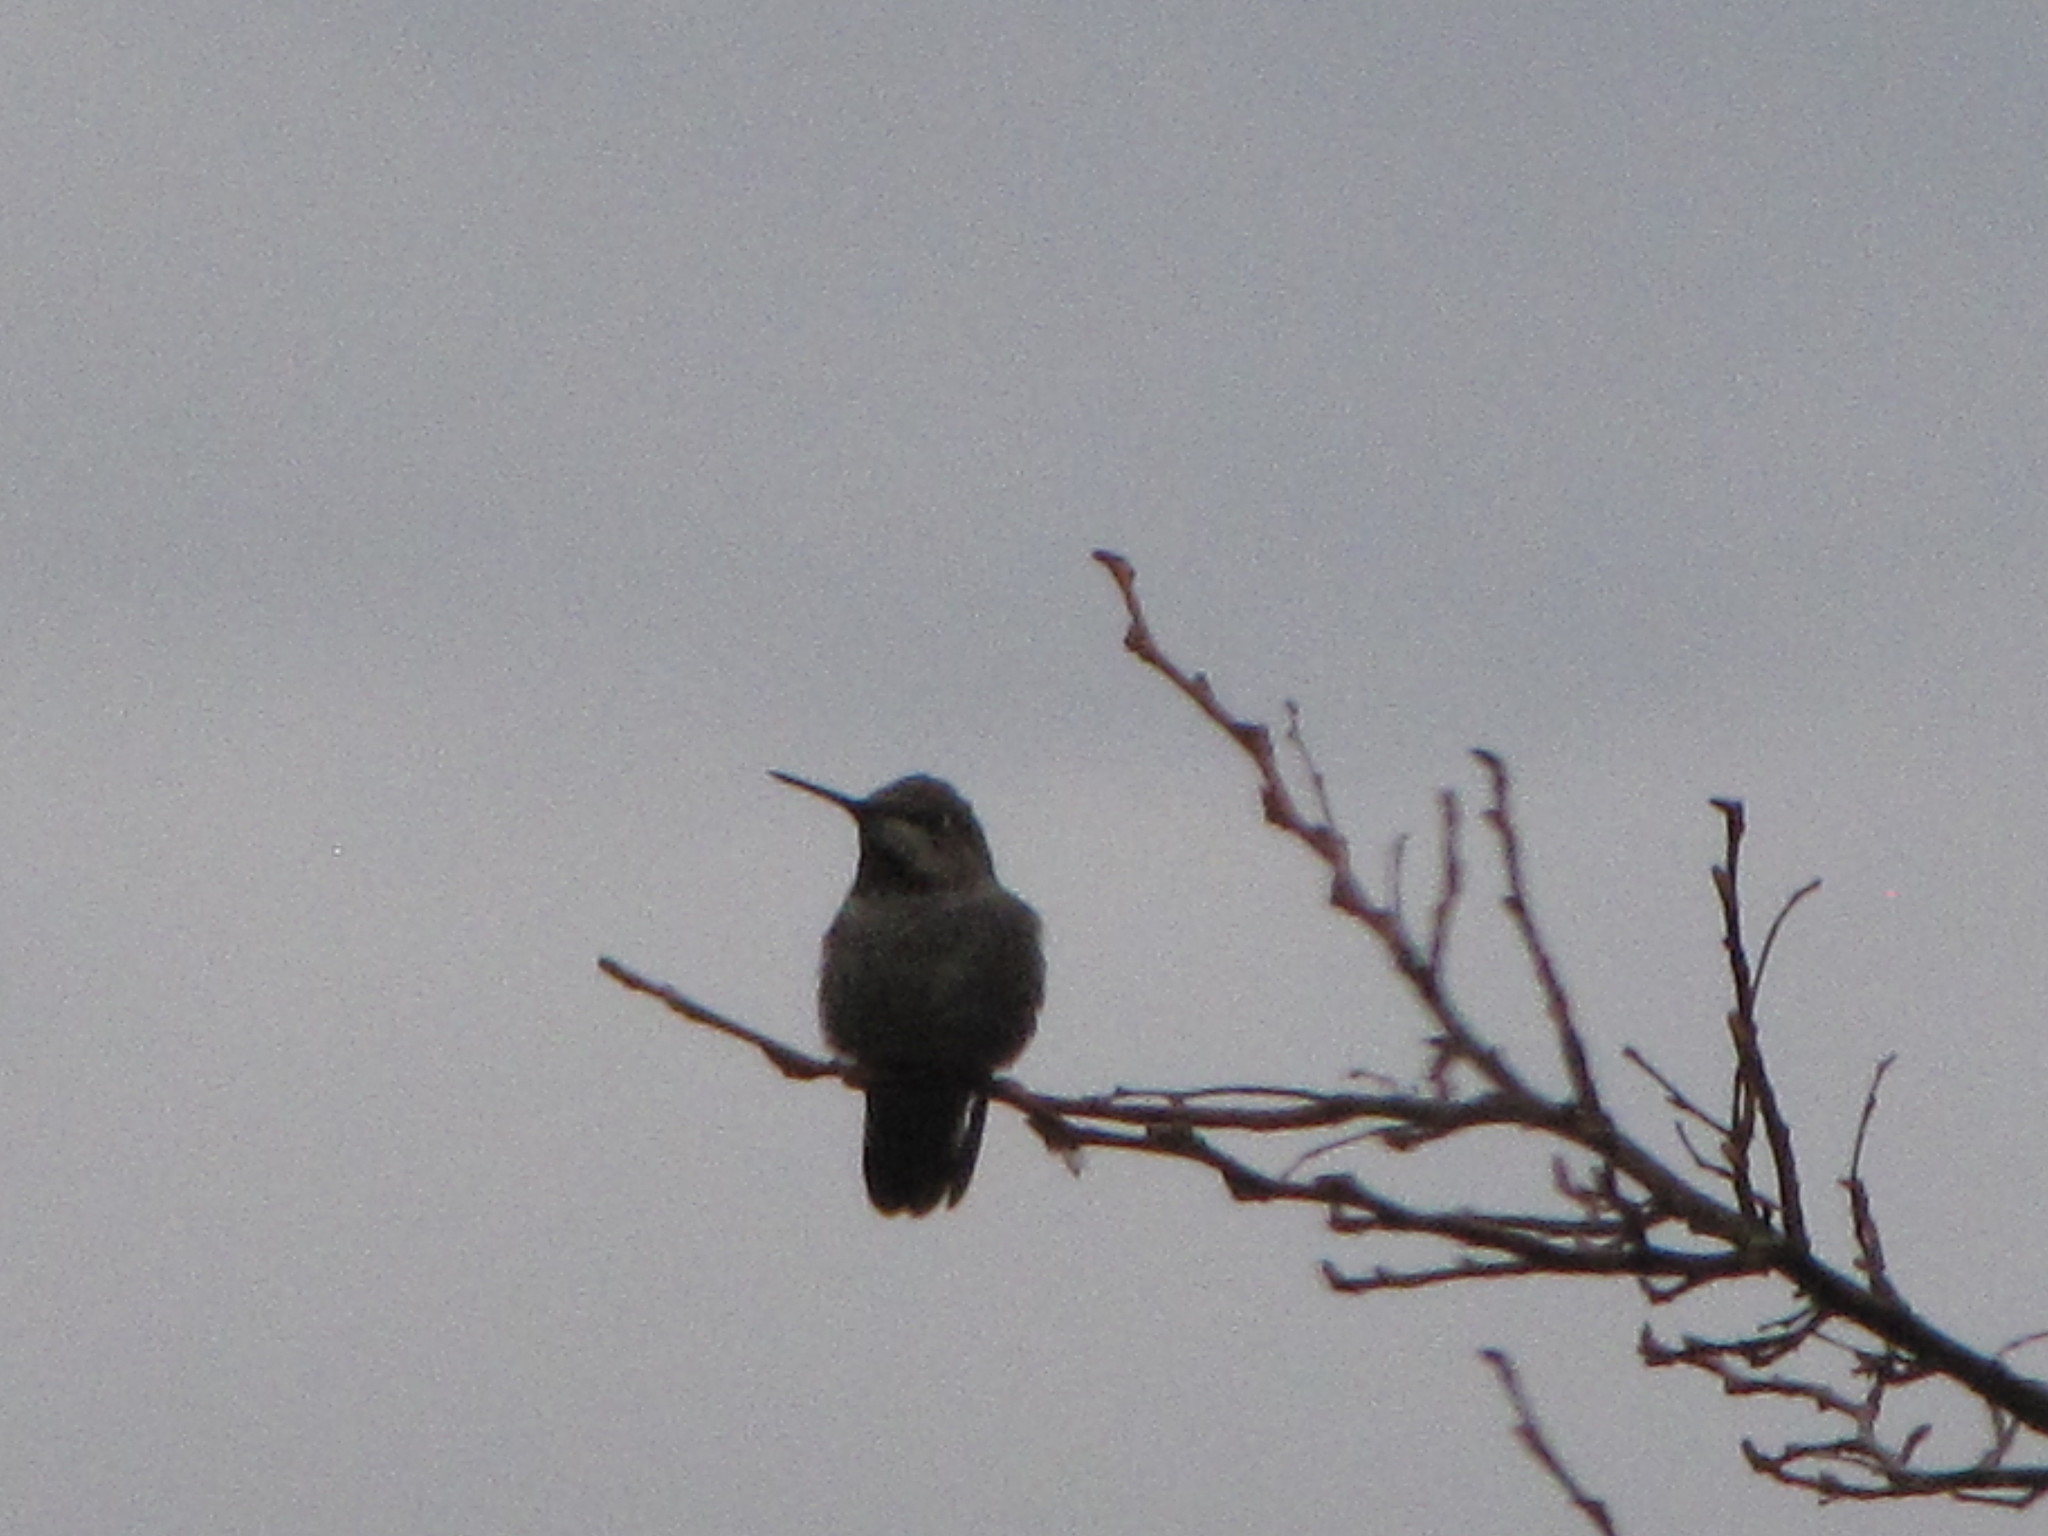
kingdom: Animalia
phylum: Chordata
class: Aves
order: Apodiformes
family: Trochilidae
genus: Calypte
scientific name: Calypte anna
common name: Anna's hummingbird
